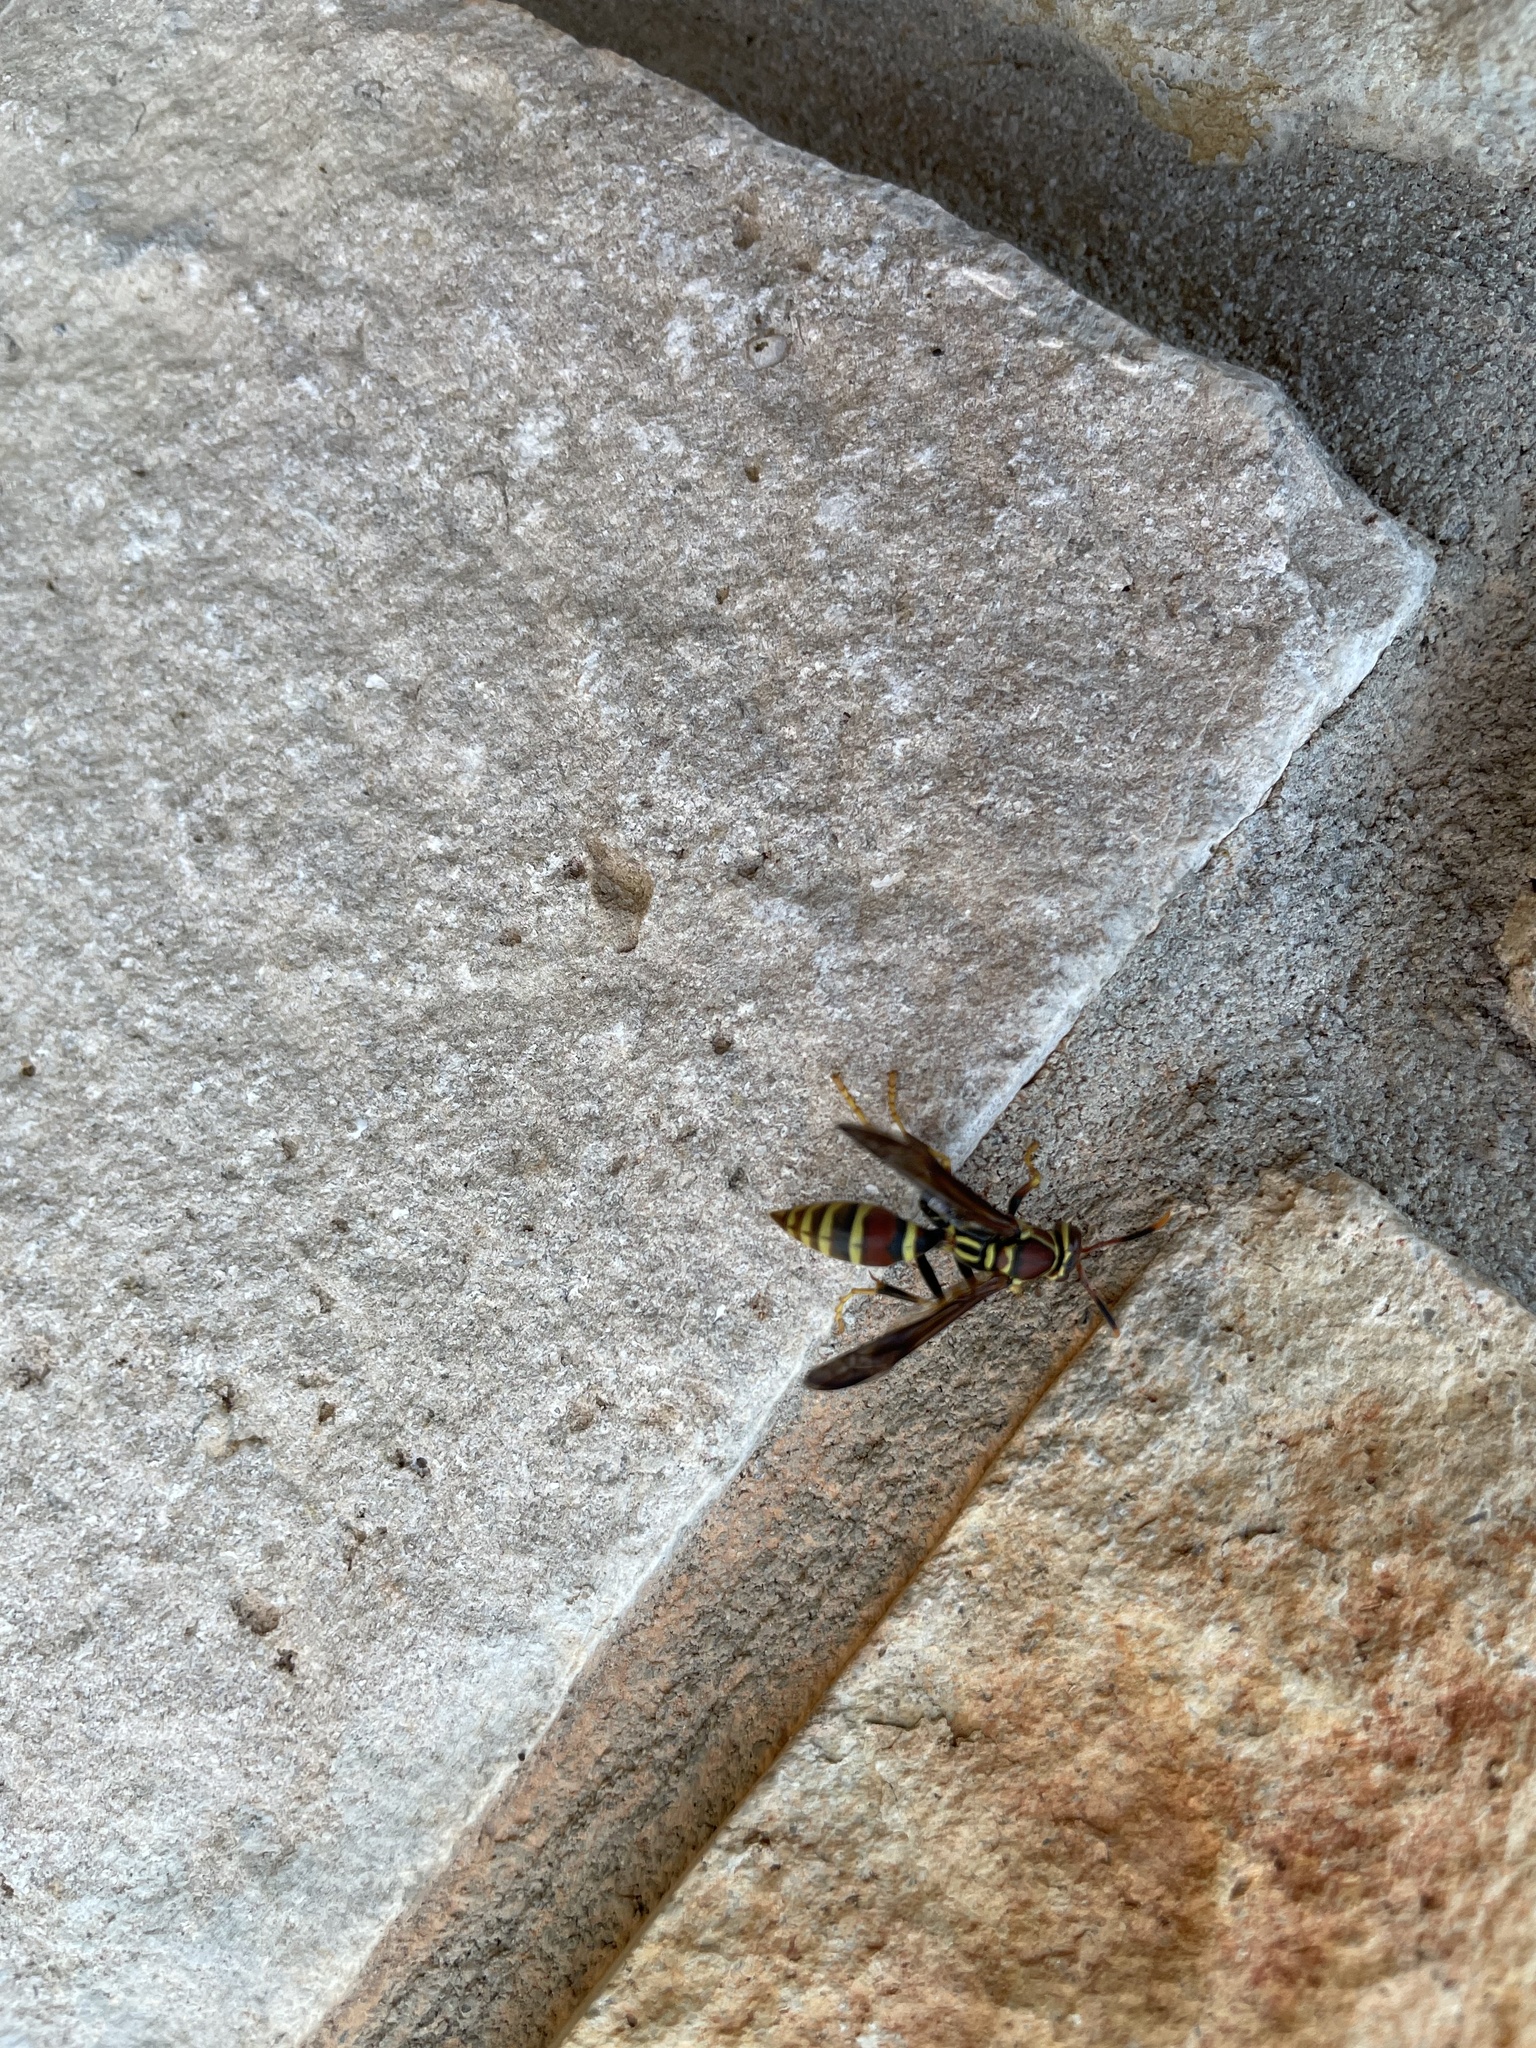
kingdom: Animalia
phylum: Arthropoda
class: Insecta
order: Hymenoptera
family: Eumenidae
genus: Polistes
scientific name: Polistes exclamans
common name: Paper wasp
